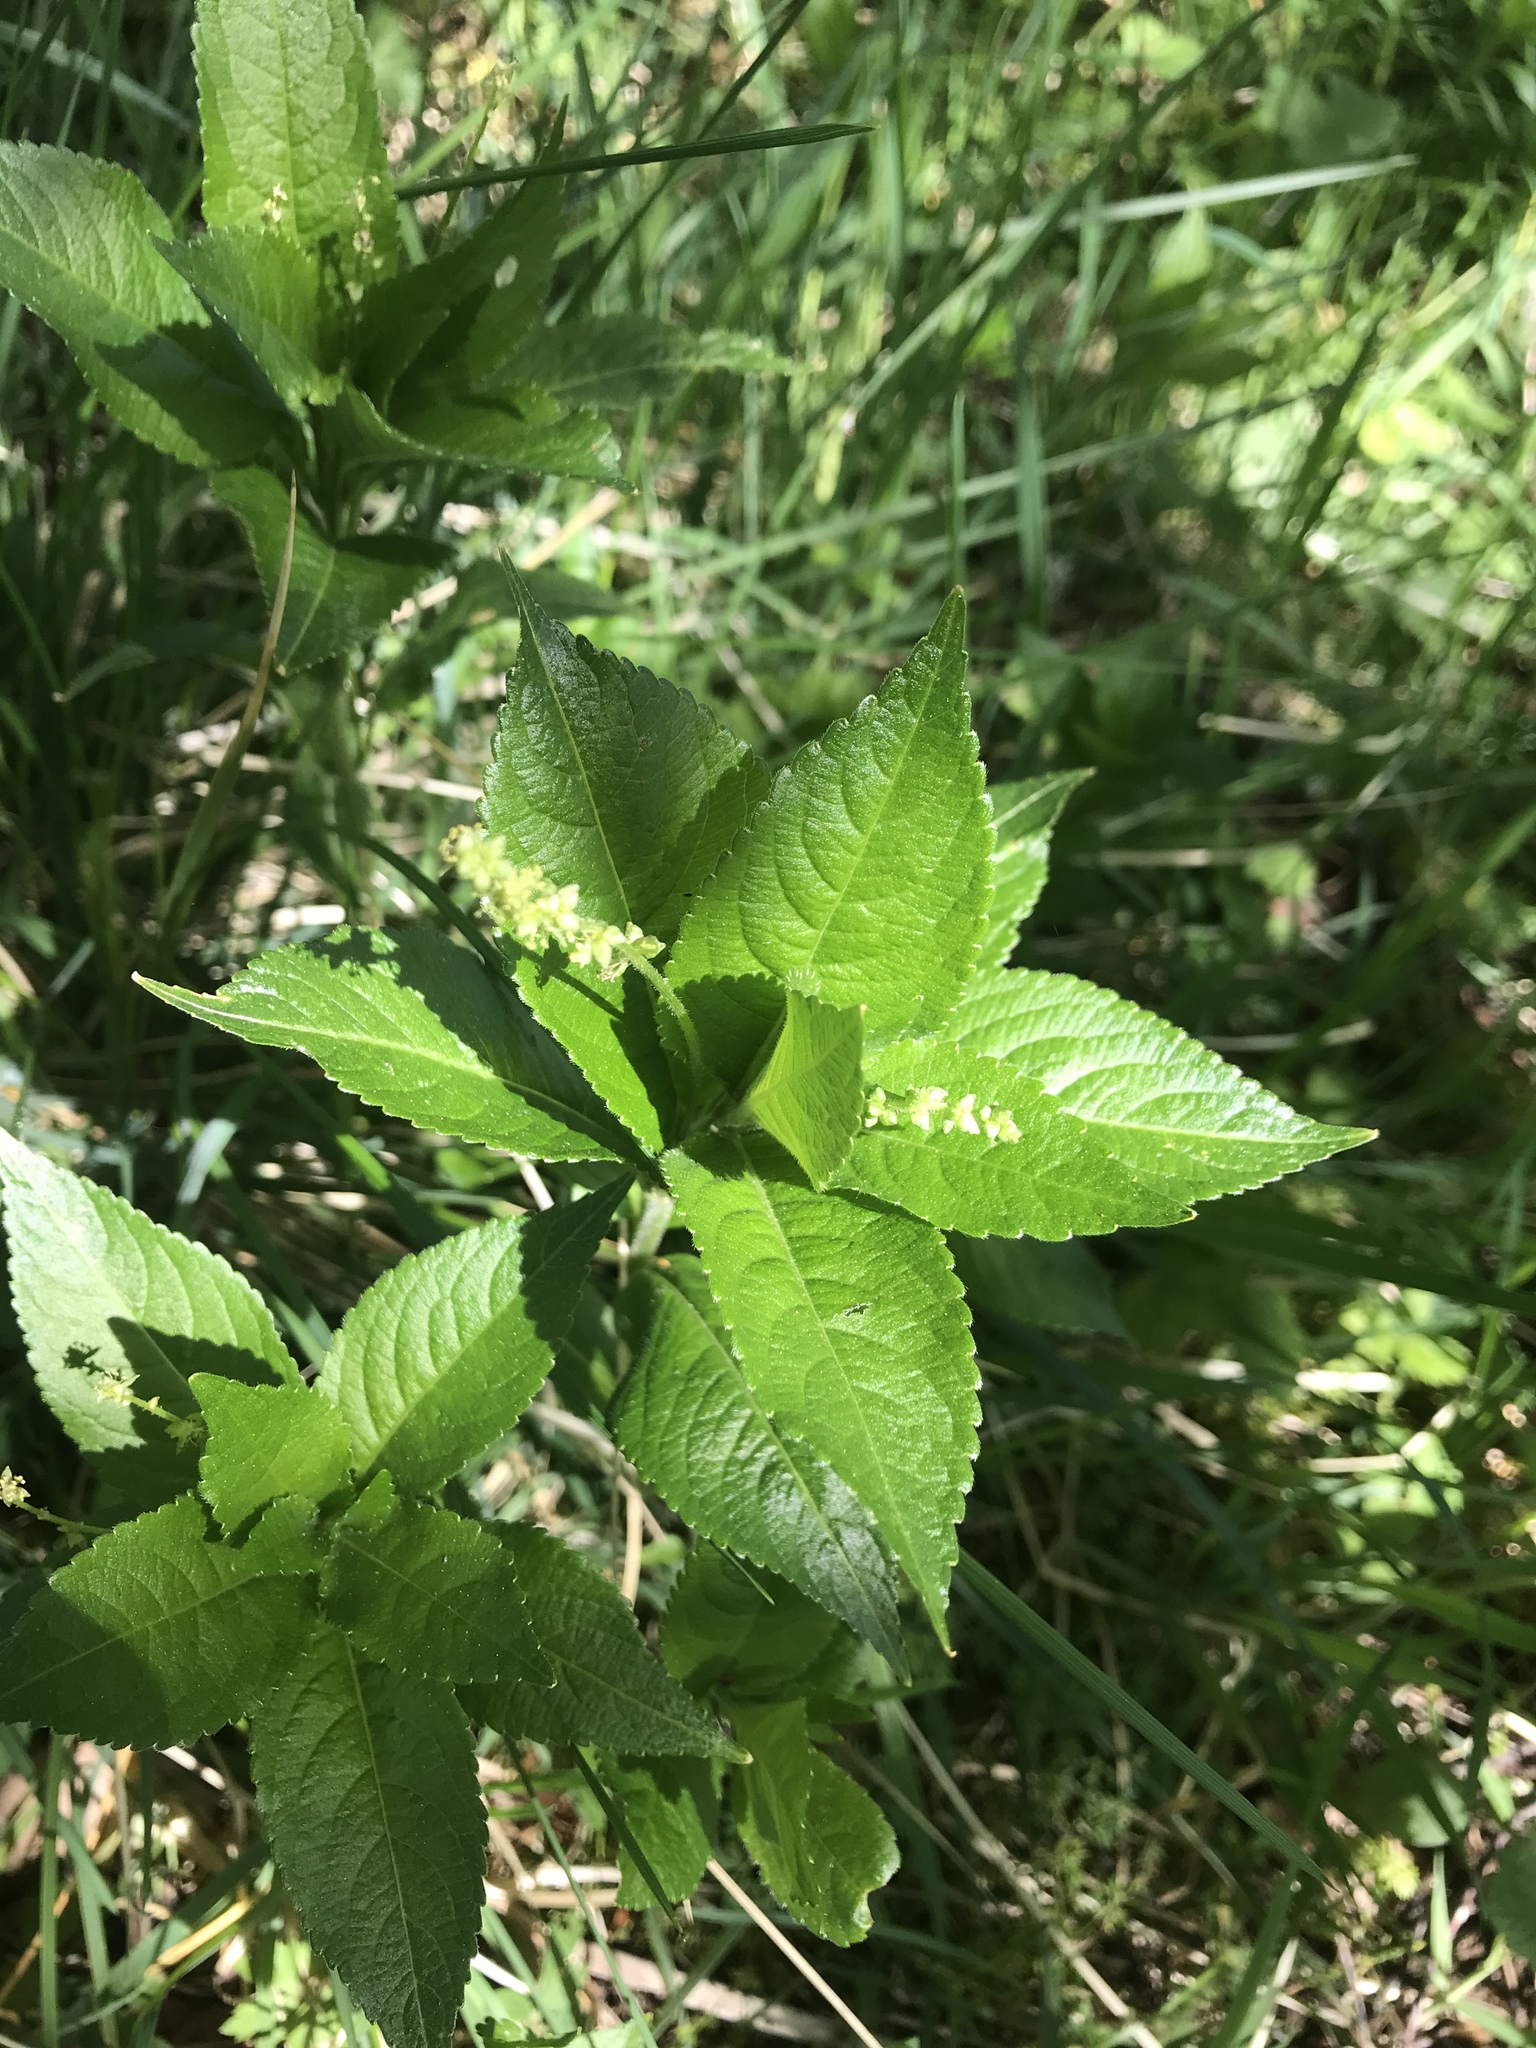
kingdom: Plantae
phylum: Tracheophyta
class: Magnoliopsida
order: Malpighiales
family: Euphorbiaceae
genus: Mercurialis
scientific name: Mercurialis perennis
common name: Dog mercury
